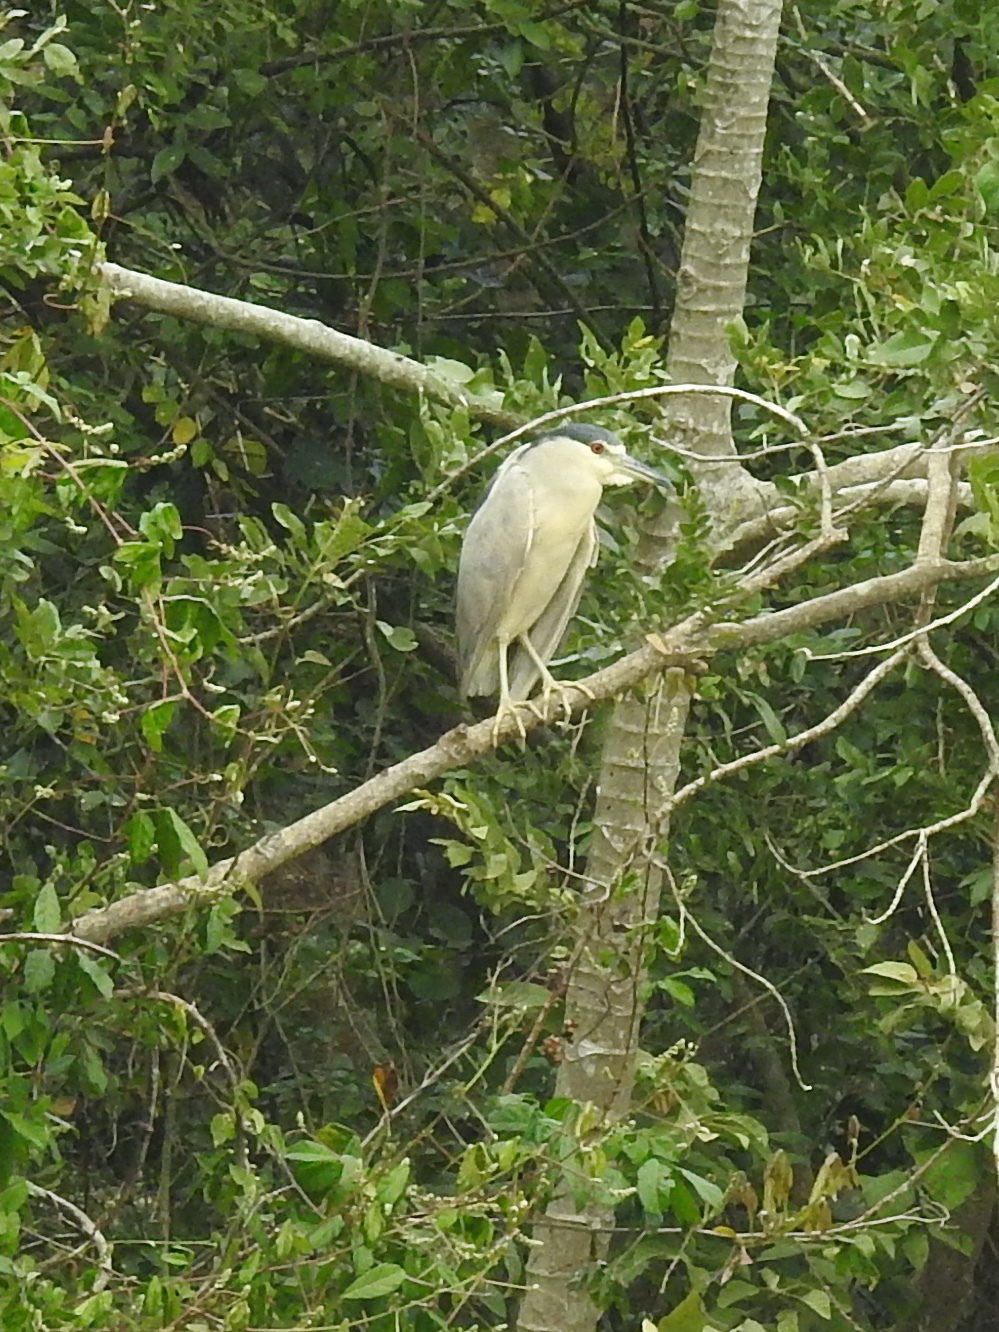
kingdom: Animalia
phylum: Chordata
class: Aves
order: Pelecaniformes
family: Ardeidae
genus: Nycticorax
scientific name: Nycticorax nycticorax
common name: Black-crowned night heron
